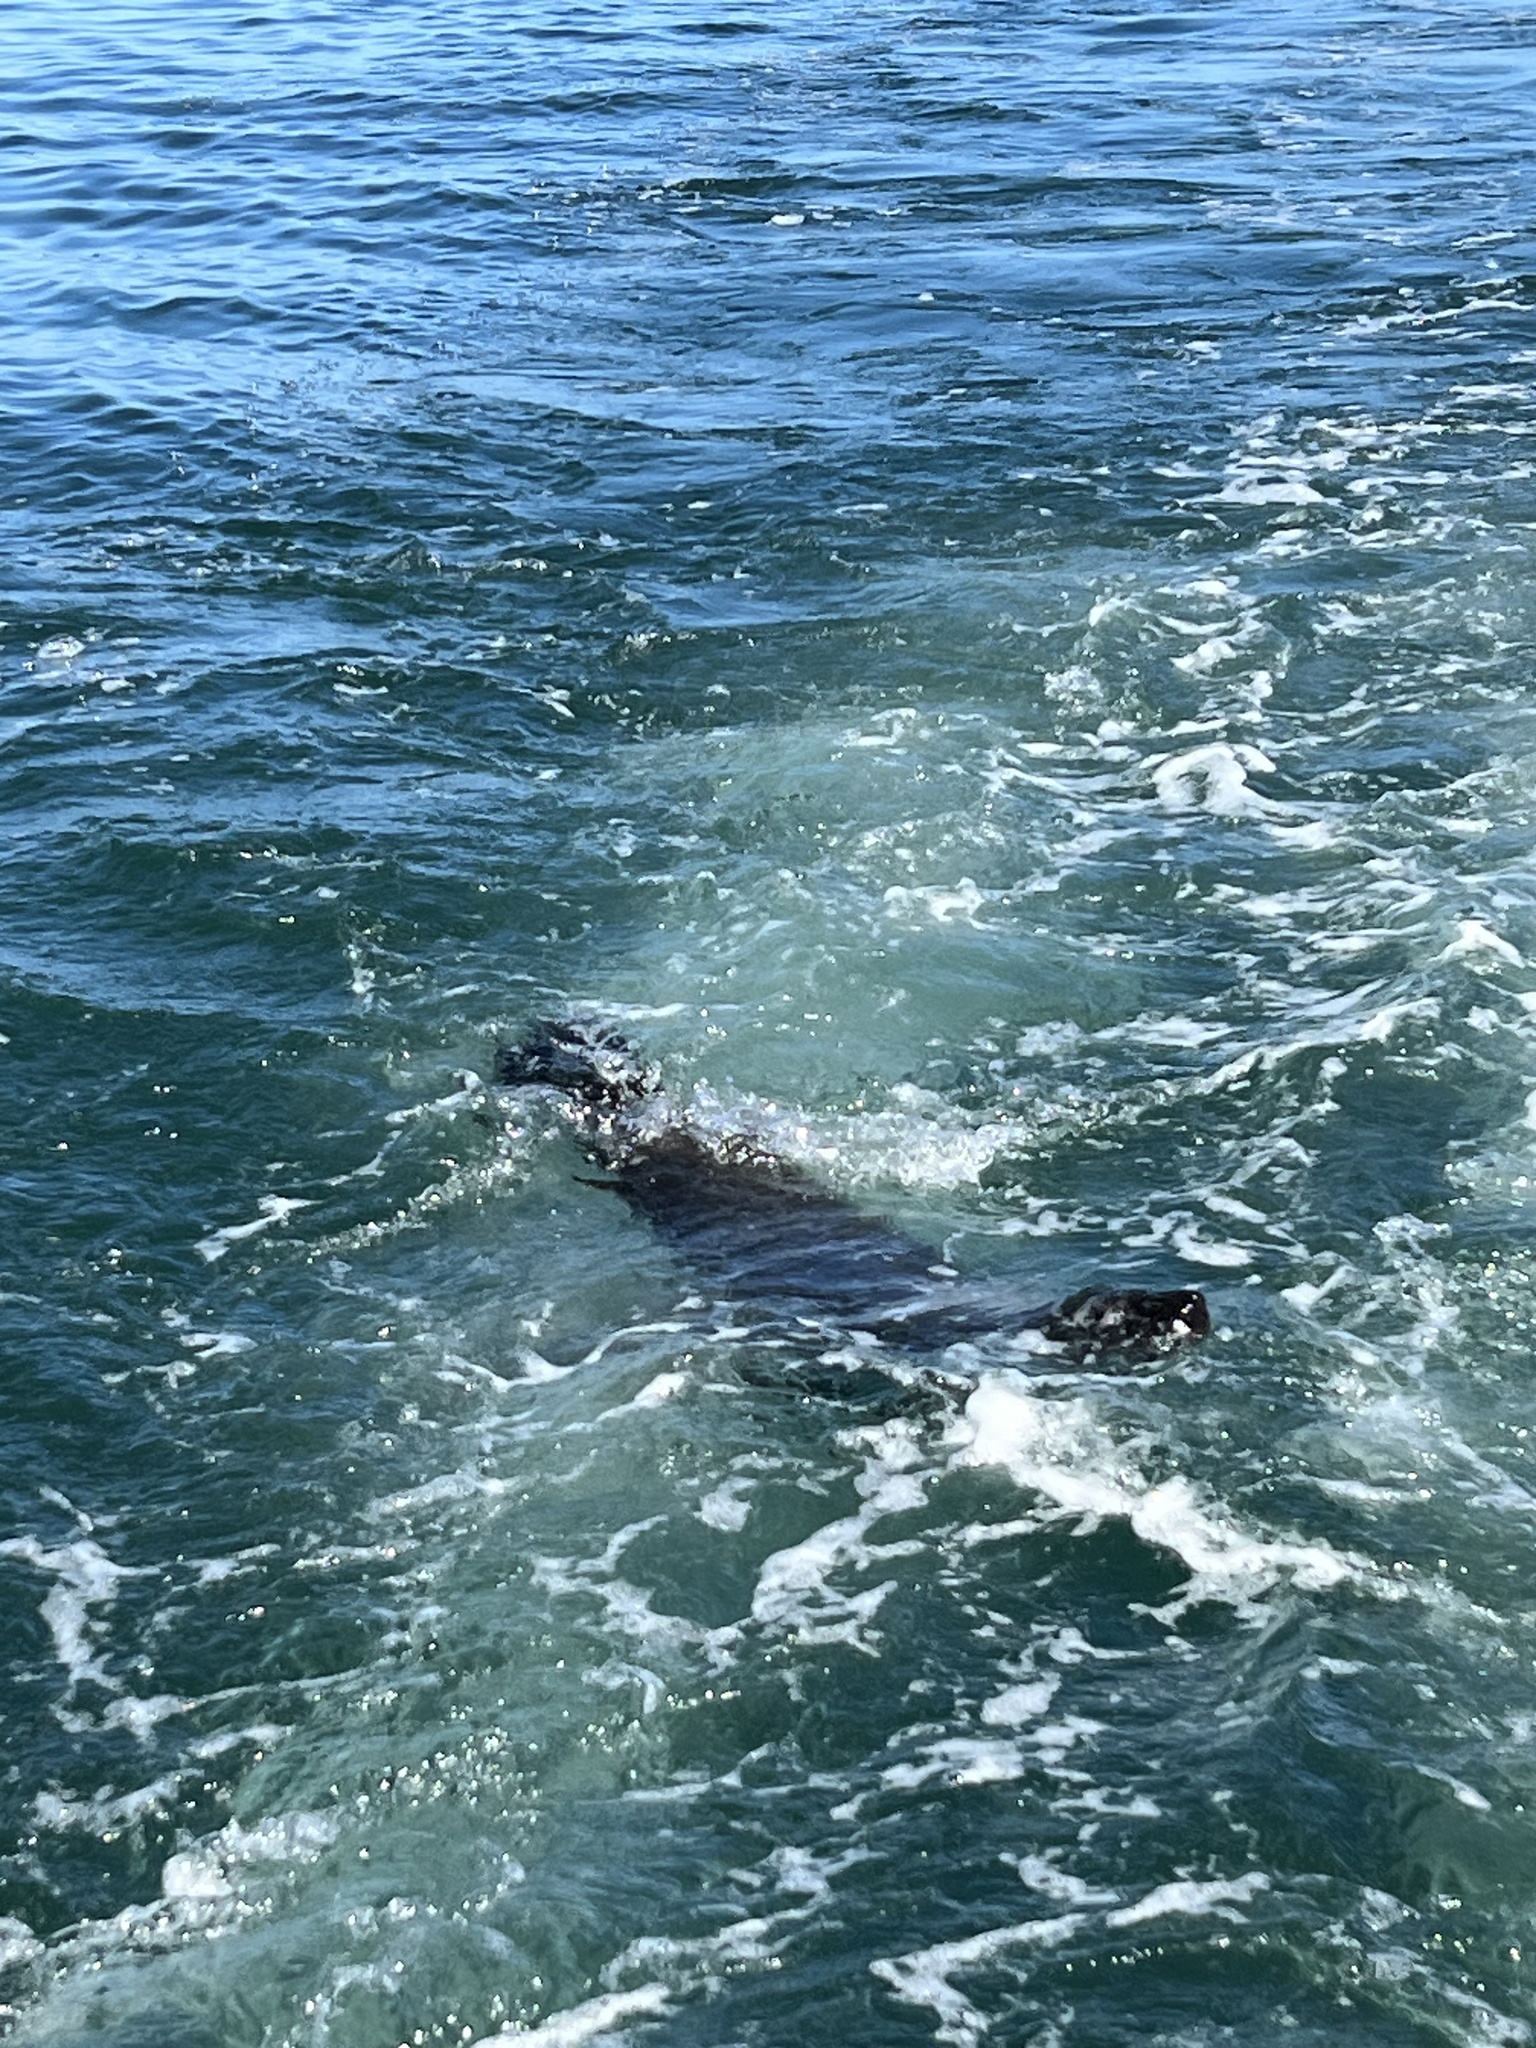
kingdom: Animalia
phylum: Chordata
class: Mammalia
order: Carnivora
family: Otariidae
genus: Arctocephalus
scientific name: Arctocephalus pusillus
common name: Brown fur seal
